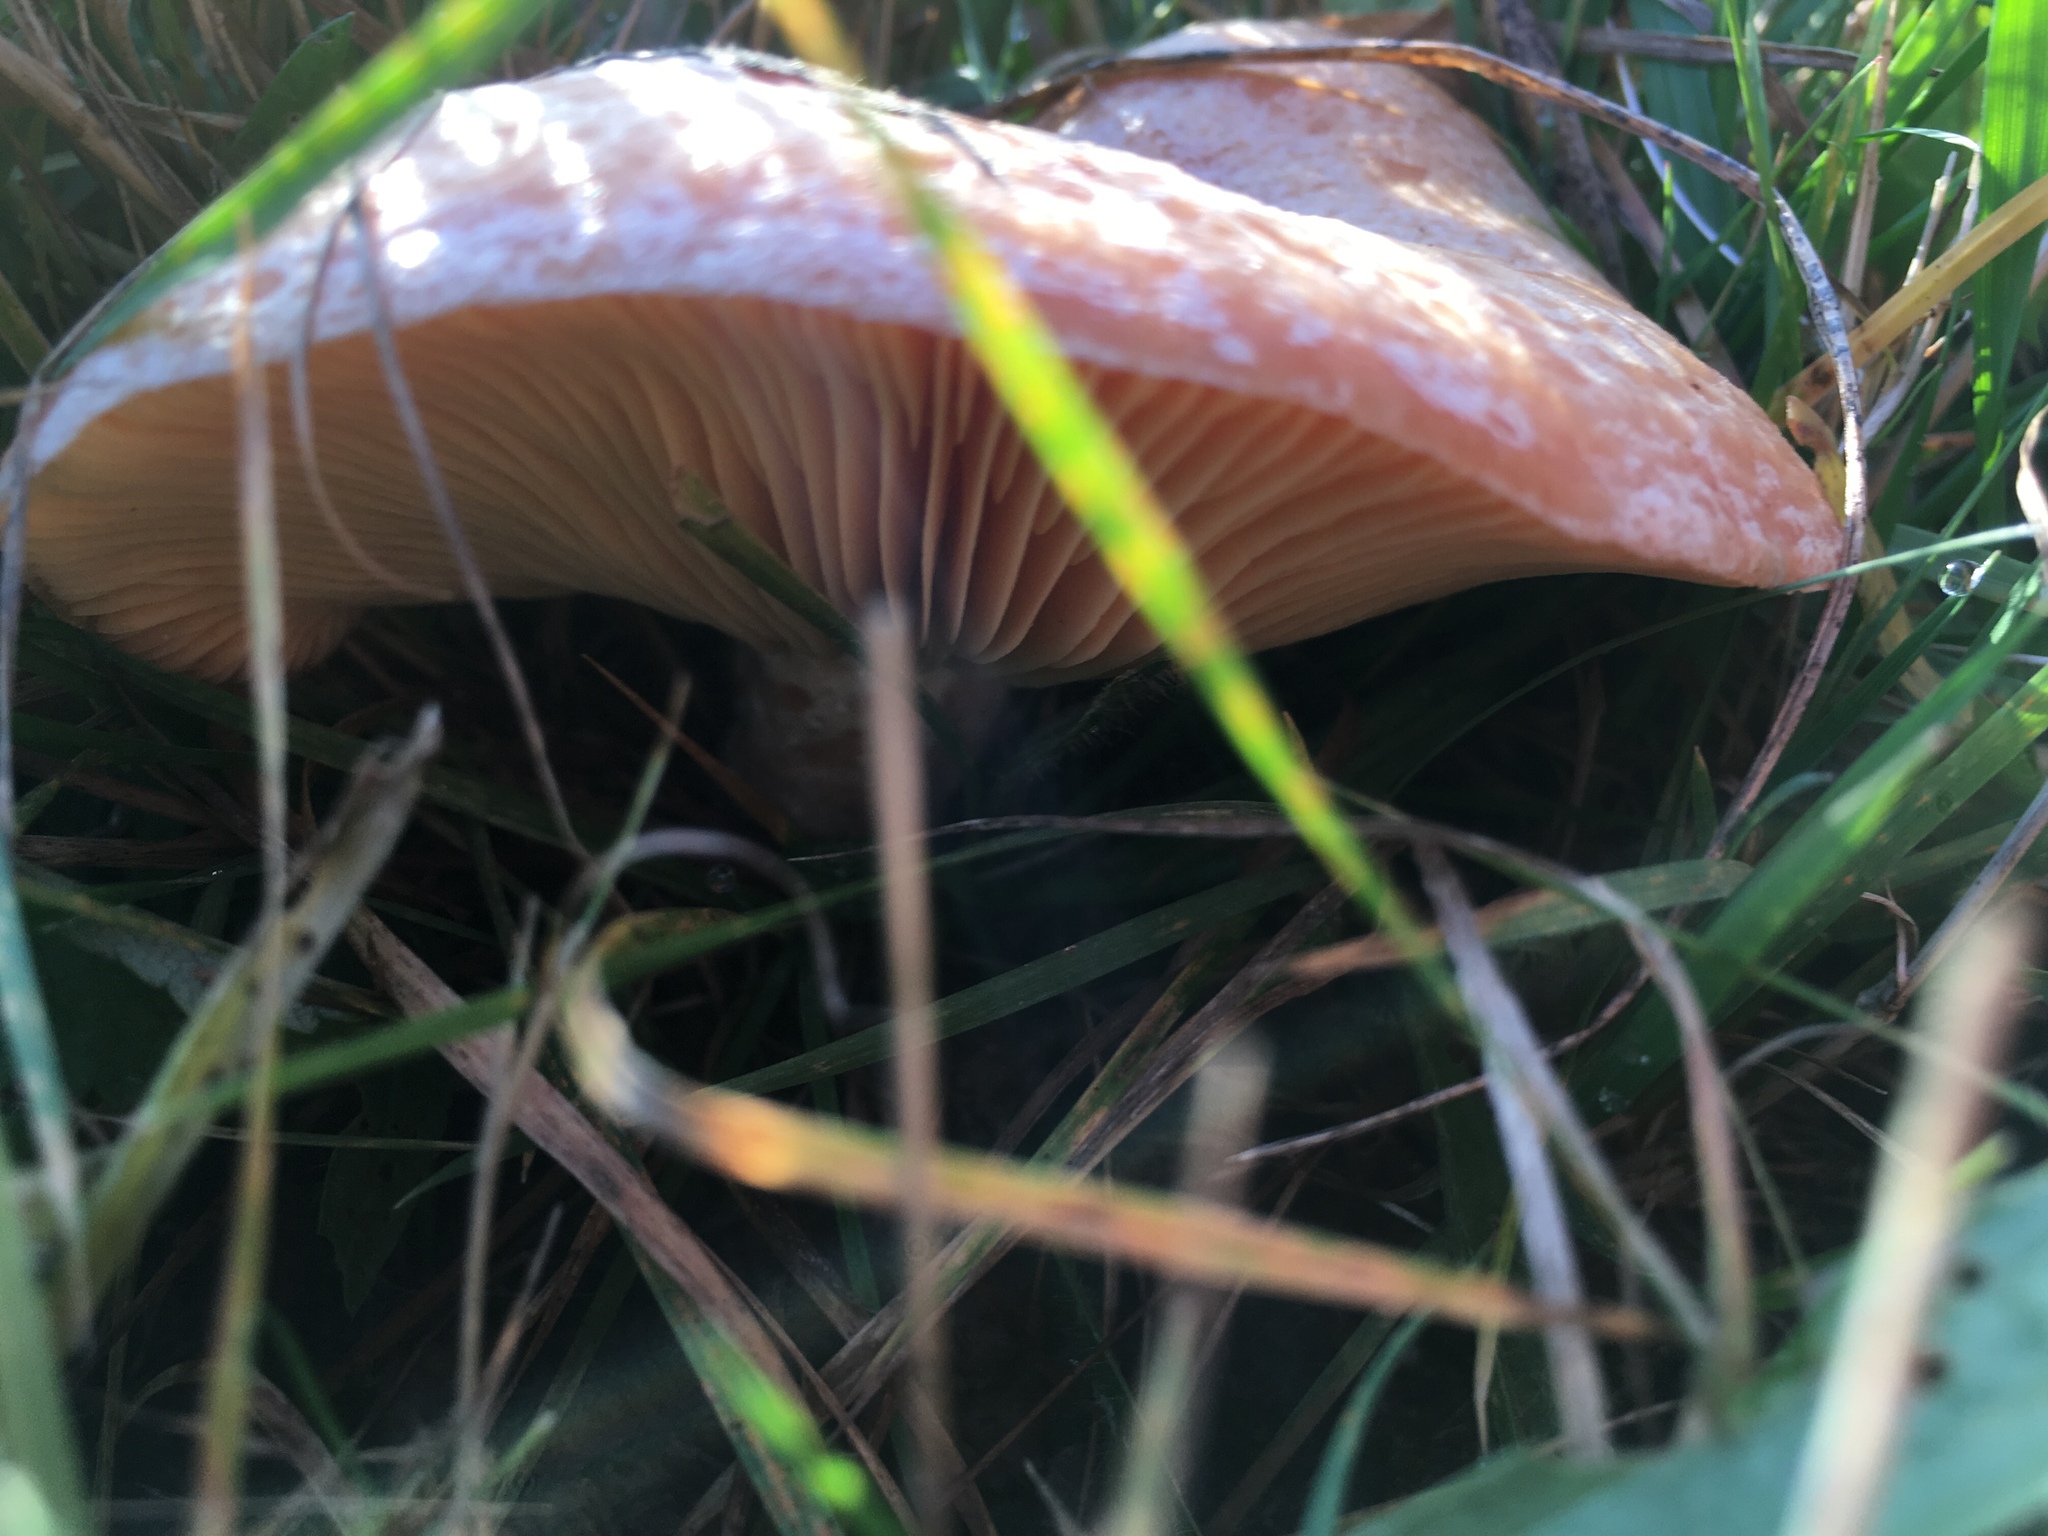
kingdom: Fungi
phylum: Basidiomycota
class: Agaricomycetes
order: Russulales
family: Russulaceae
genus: Lactarius
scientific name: Lactarius deliciosus
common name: Saffron milk-cap
